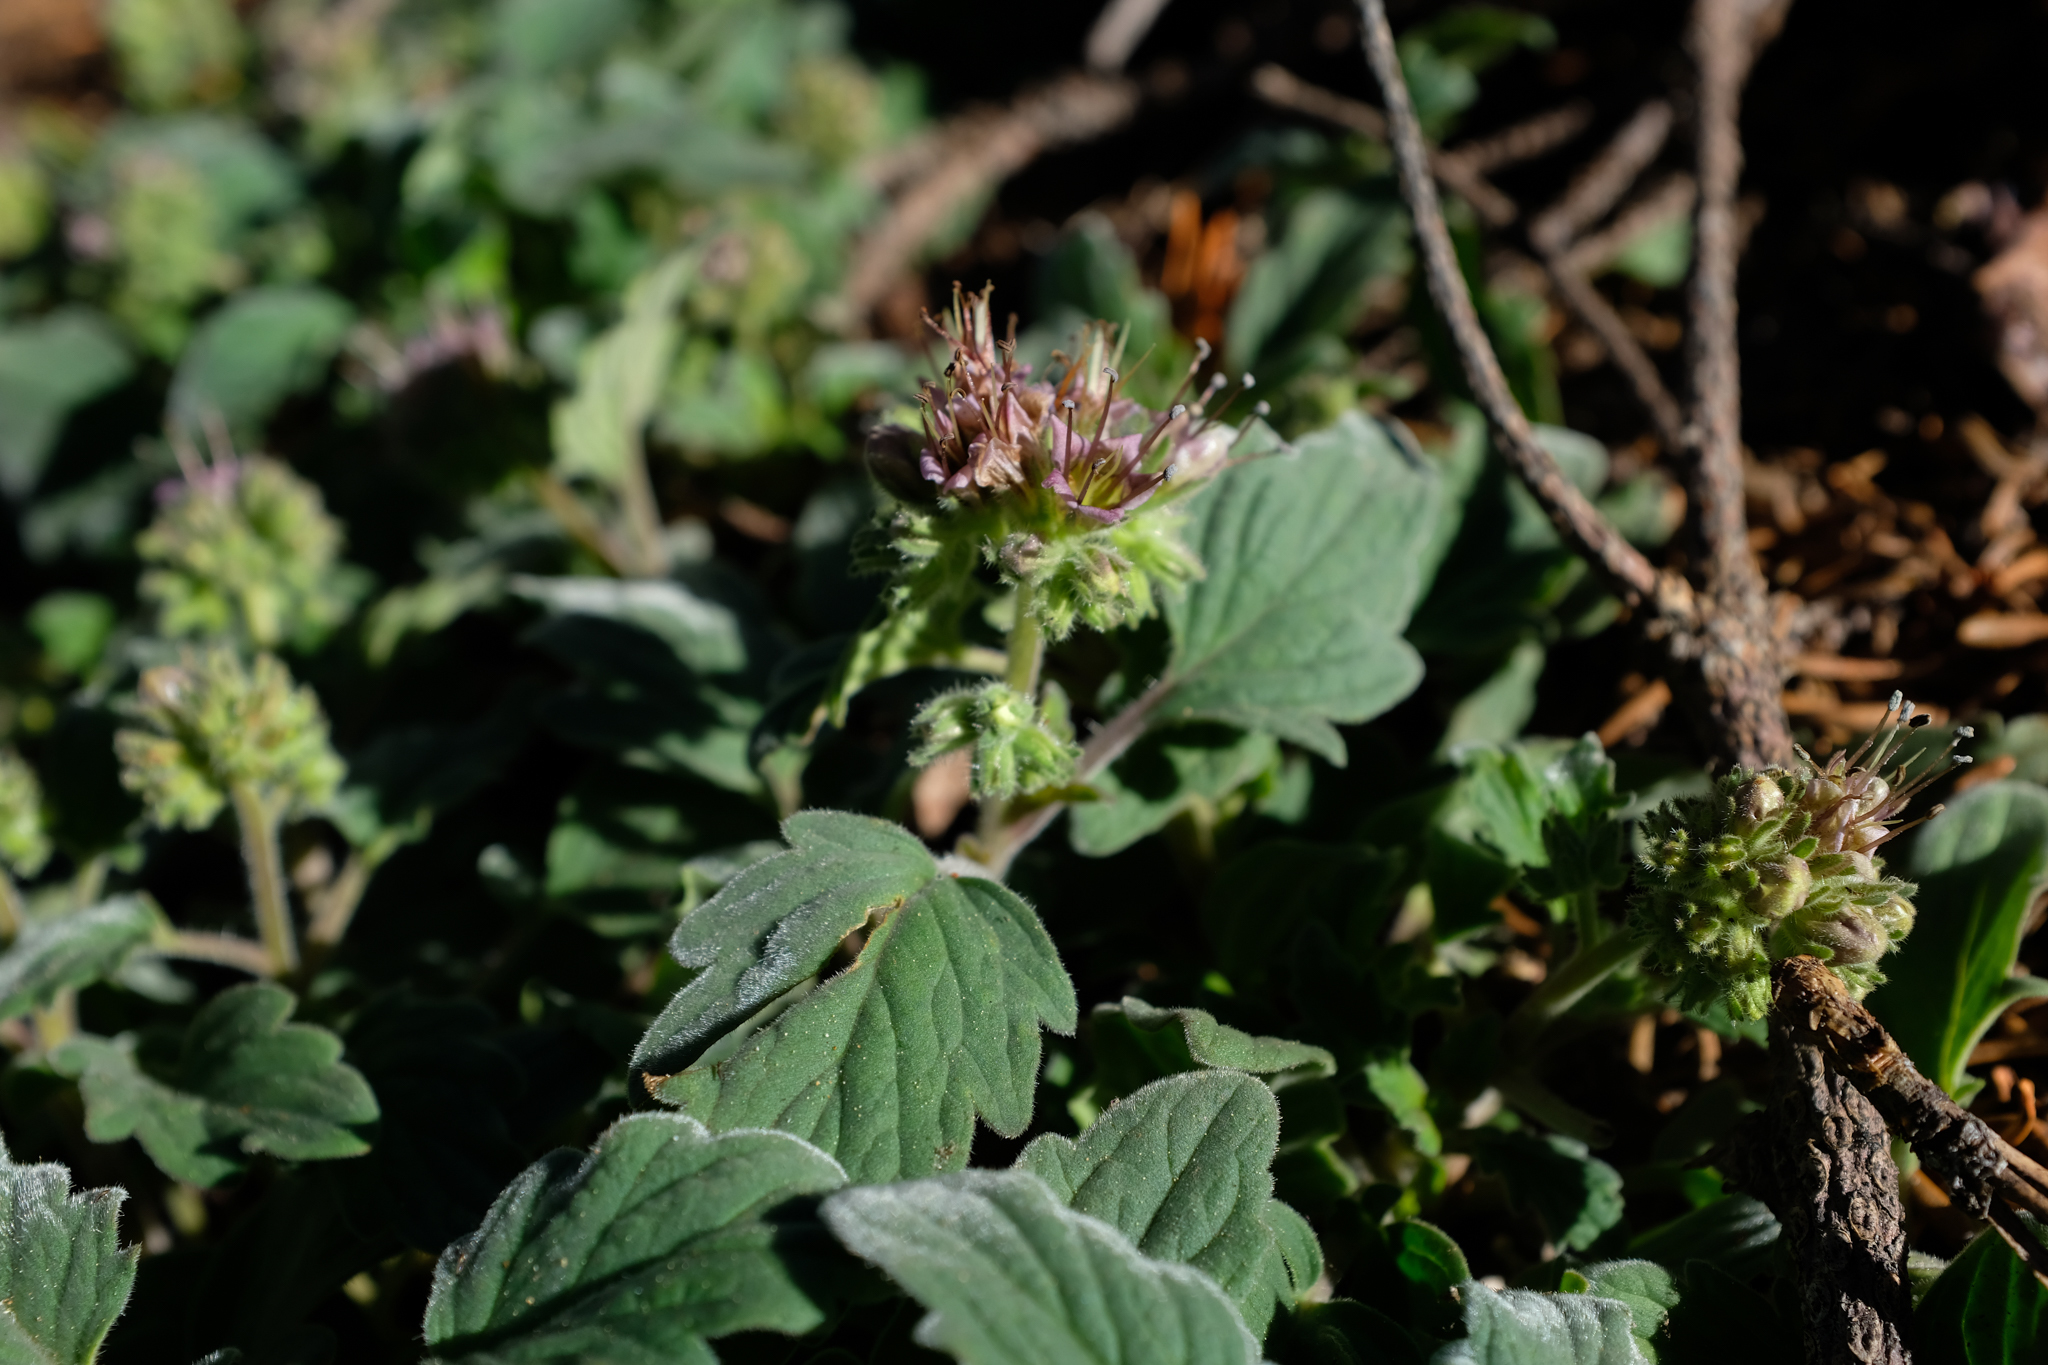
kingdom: Plantae
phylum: Tracheophyta
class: Magnoliopsida
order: Boraginales
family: Hydrophyllaceae
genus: Phacelia
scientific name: Phacelia hydrophylloides
